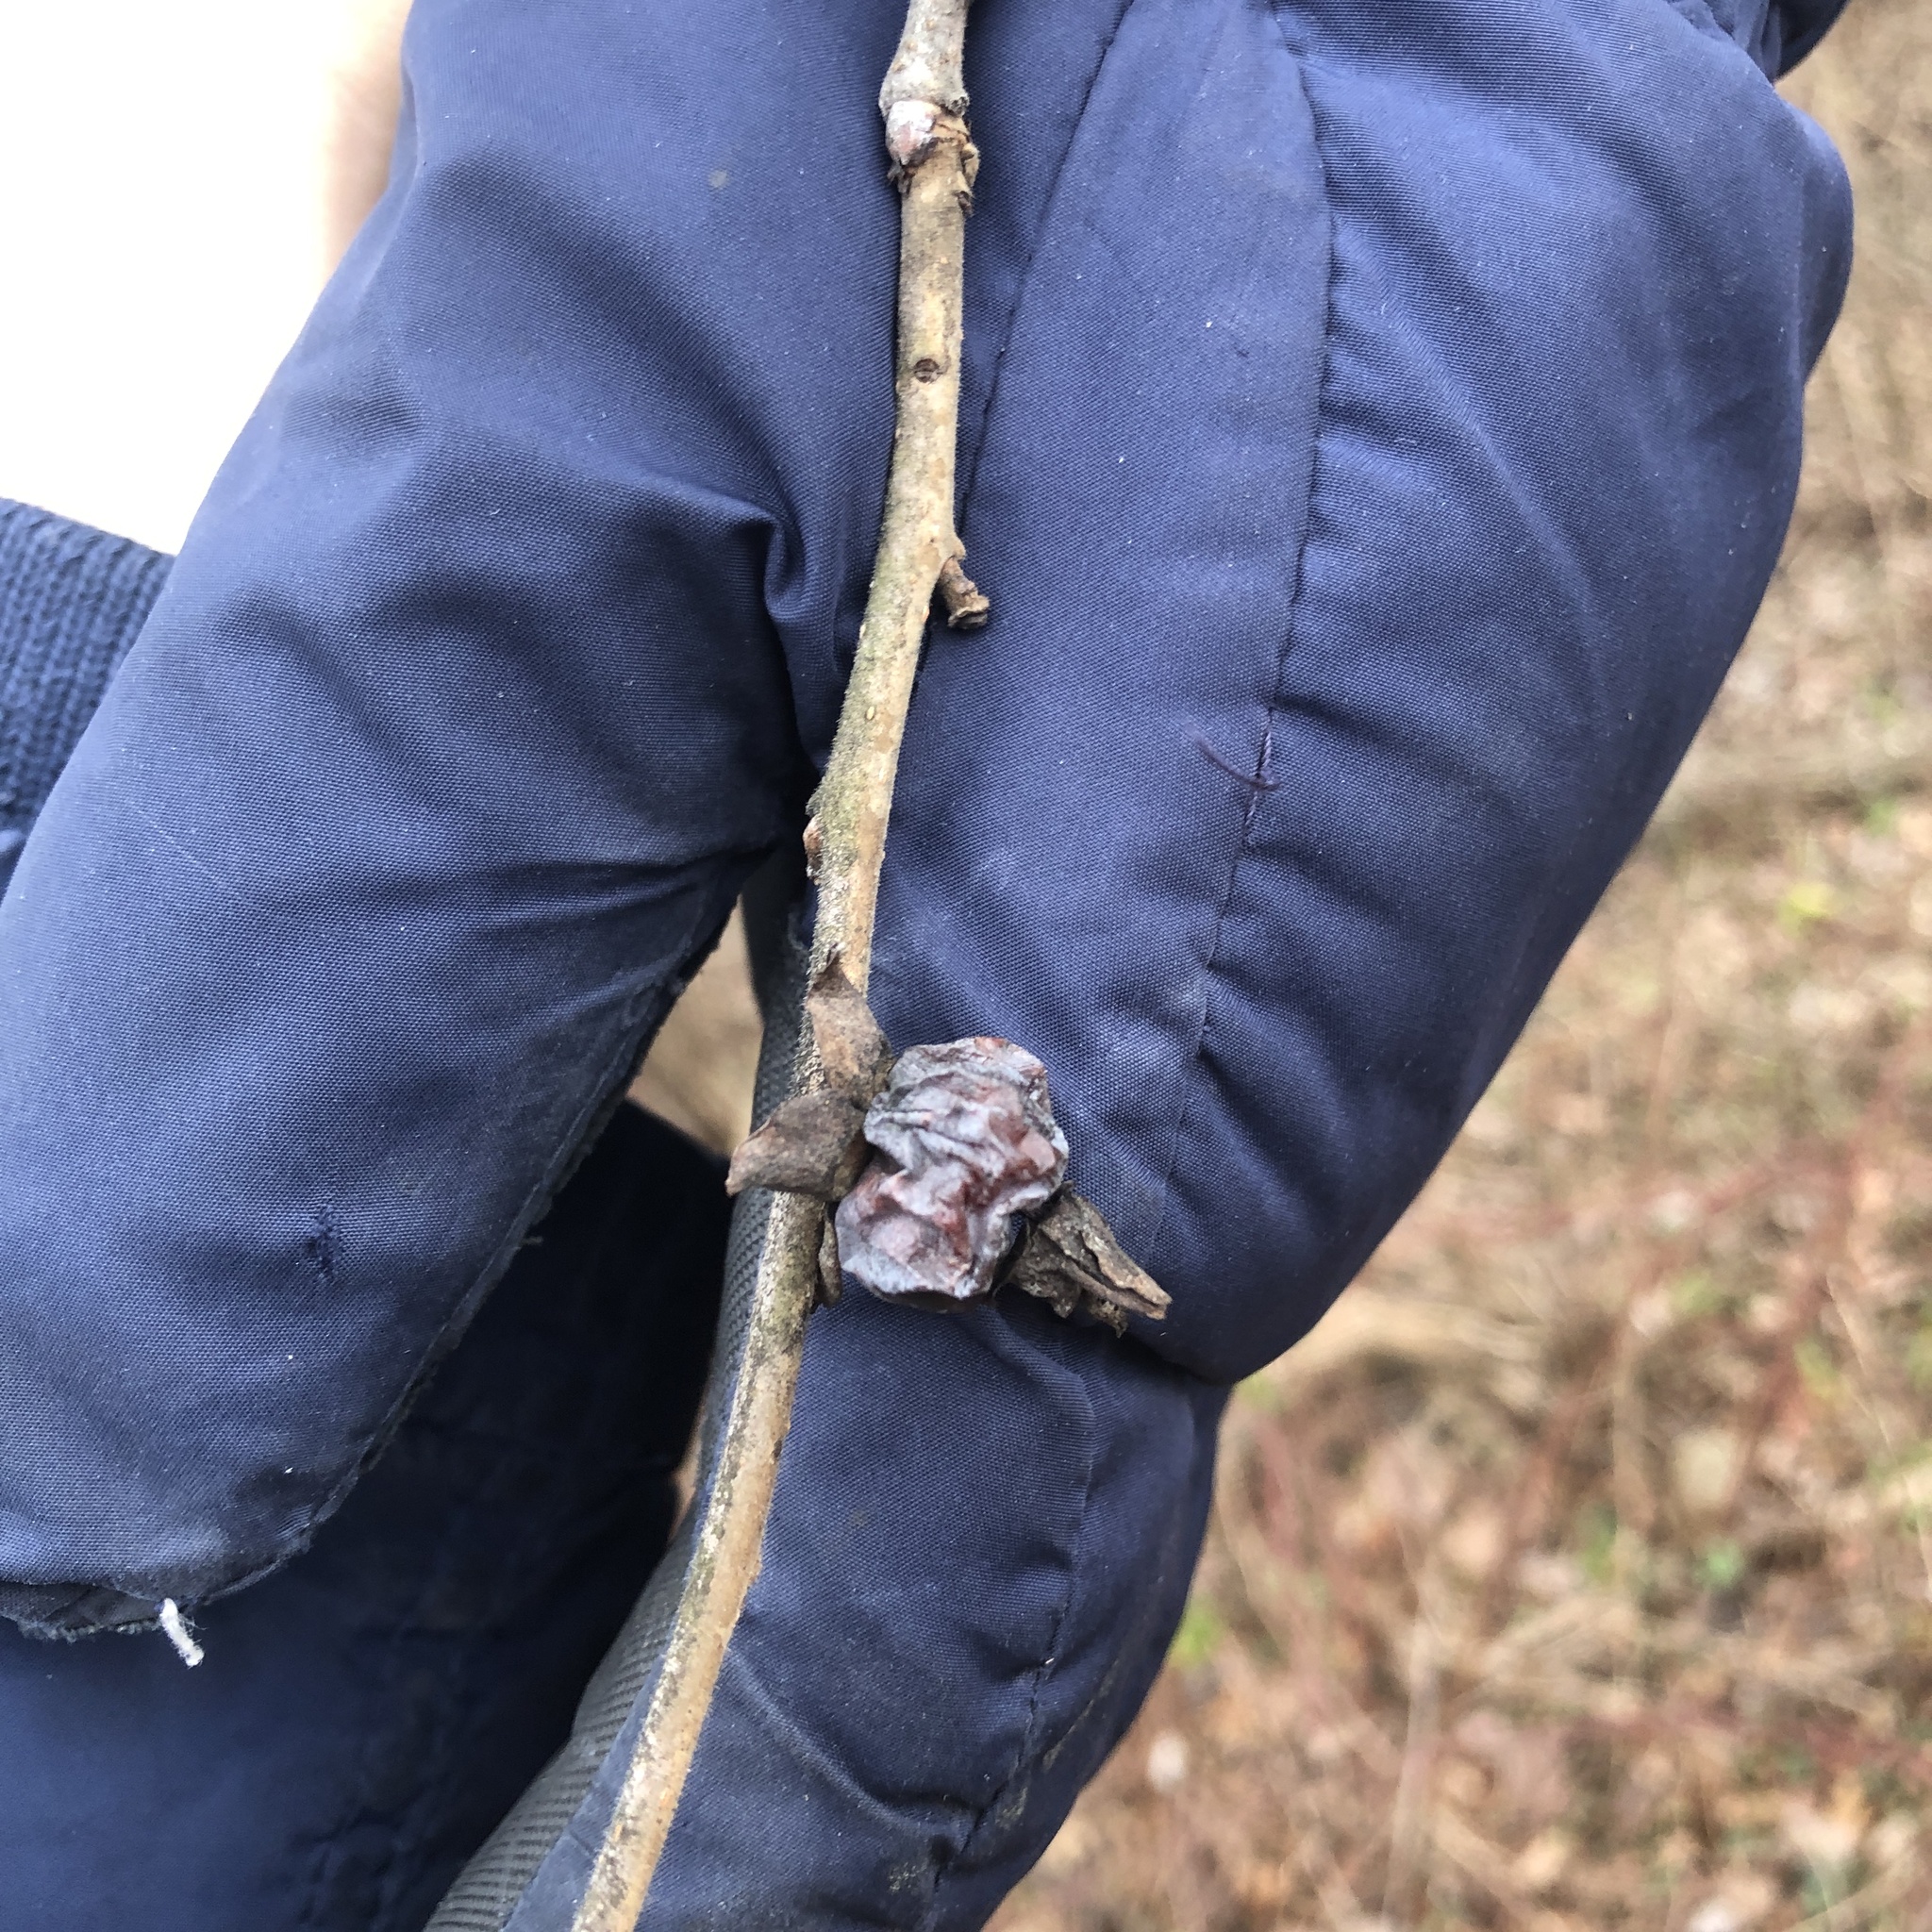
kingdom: Plantae
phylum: Tracheophyta
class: Magnoliopsida
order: Ericales
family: Ebenaceae
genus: Diospyros
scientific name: Diospyros virginiana
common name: Persimmon
